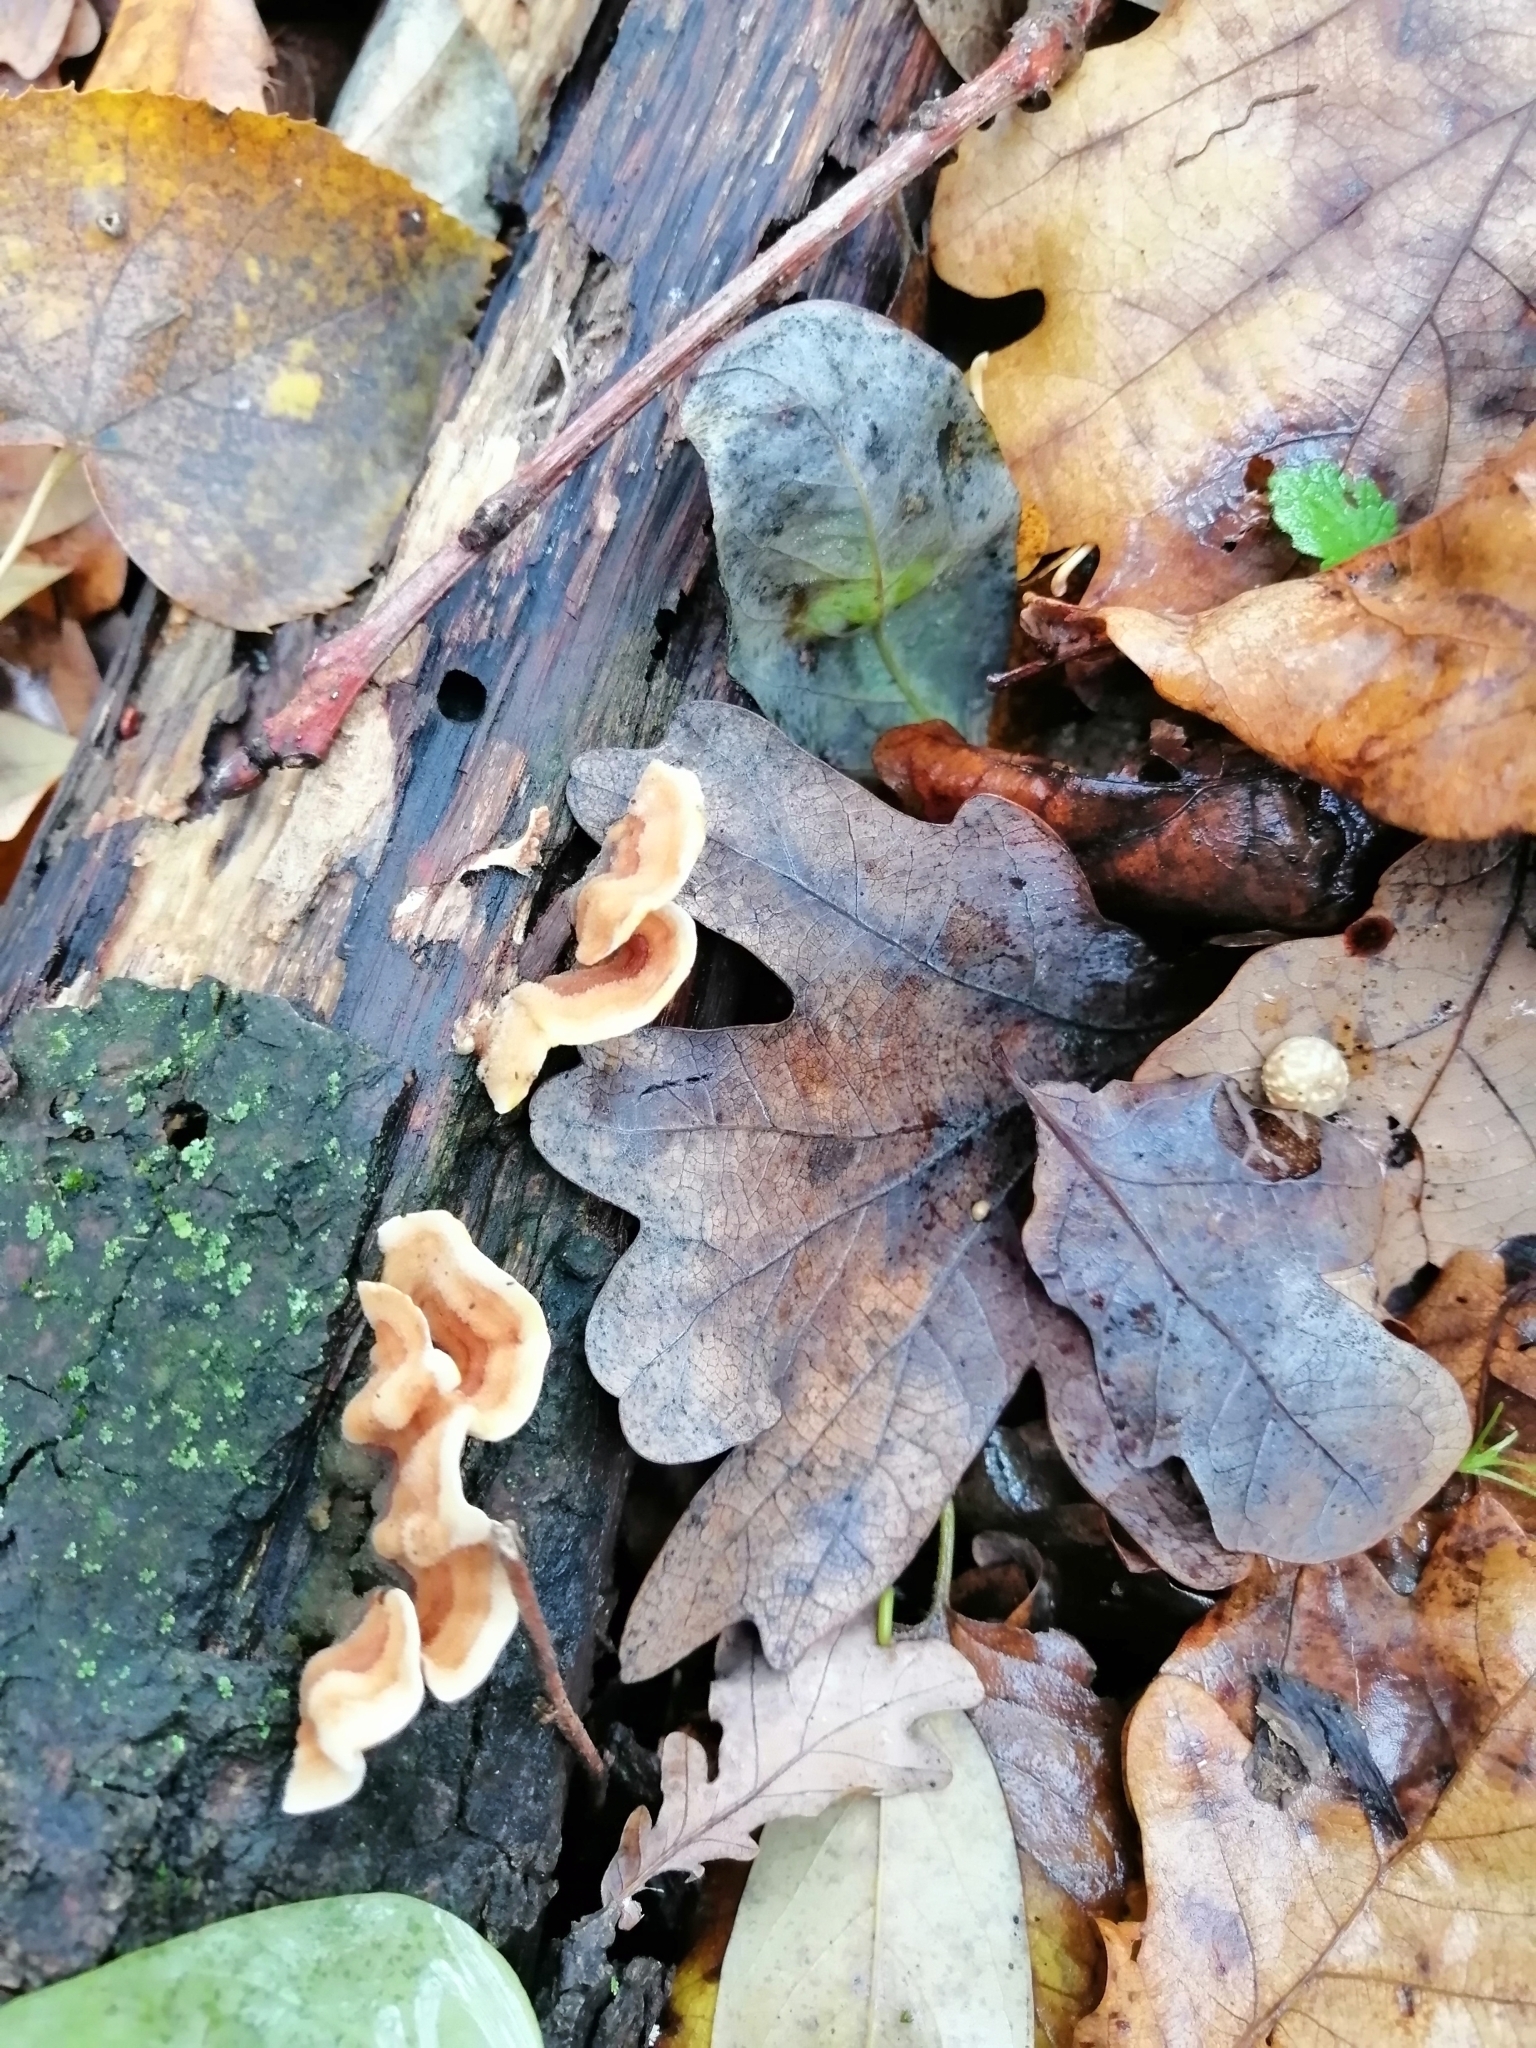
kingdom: Fungi
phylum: Basidiomycota
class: Agaricomycetes
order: Russulales
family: Stereaceae
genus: Stereum
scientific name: Stereum hirsutum
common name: Hairy curtain crust
